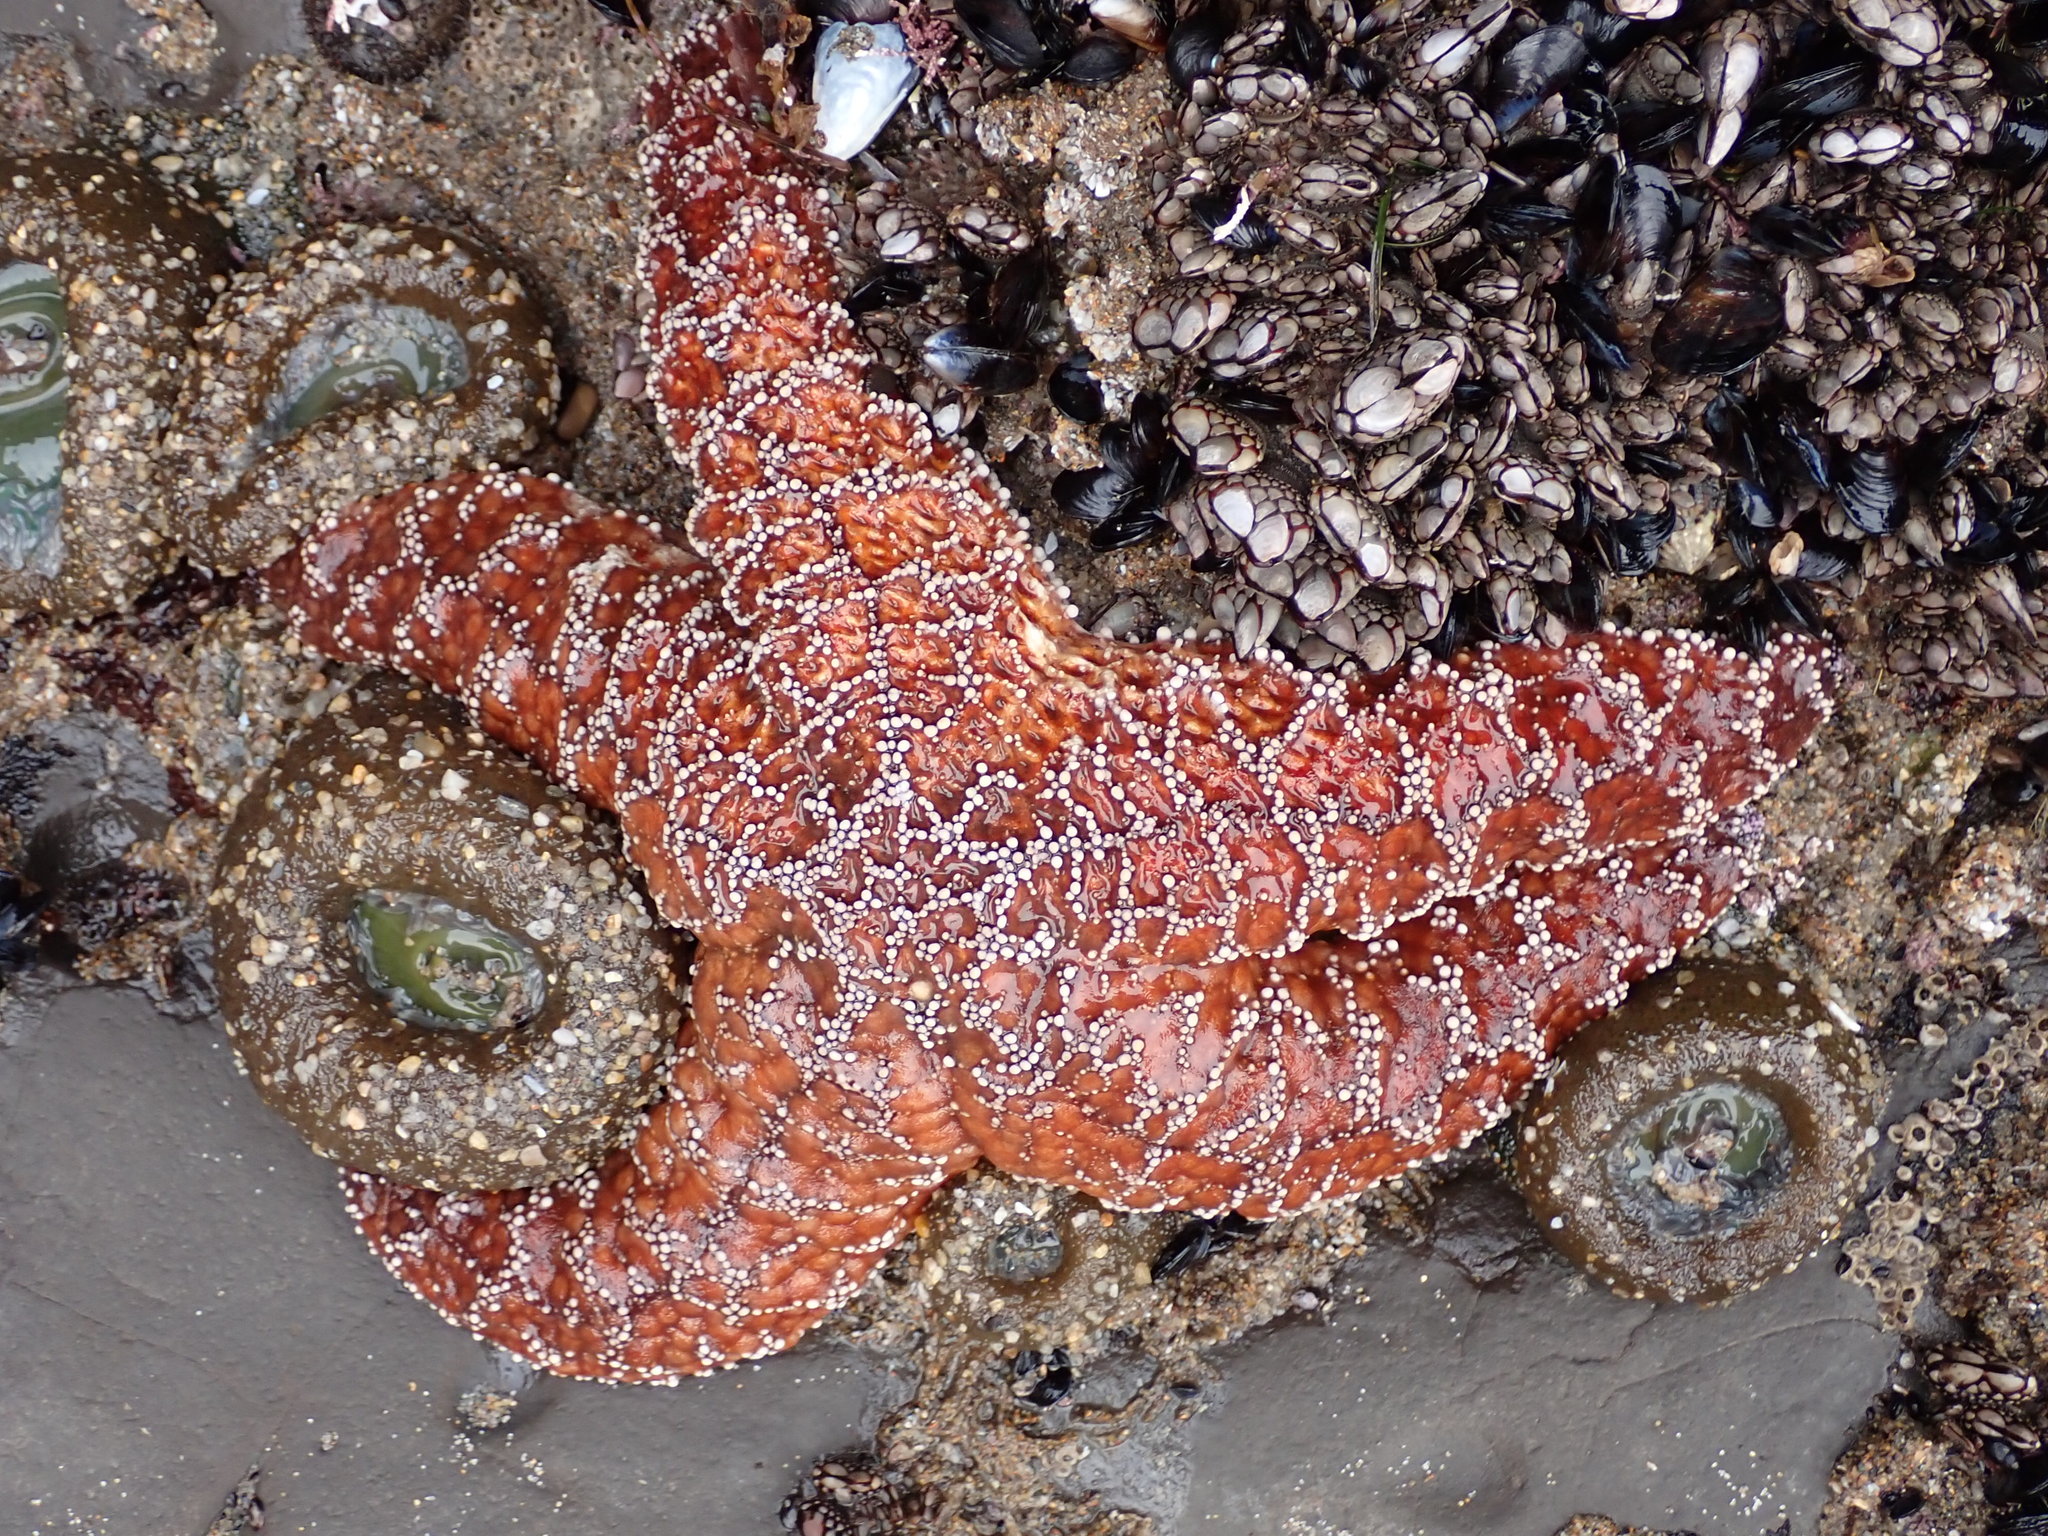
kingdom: Animalia
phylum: Echinodermata
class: Asteroidea
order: Forcipulatida
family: Asteriidae
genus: Pisaster
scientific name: Pisaster ochraceus
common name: Ochre stars
